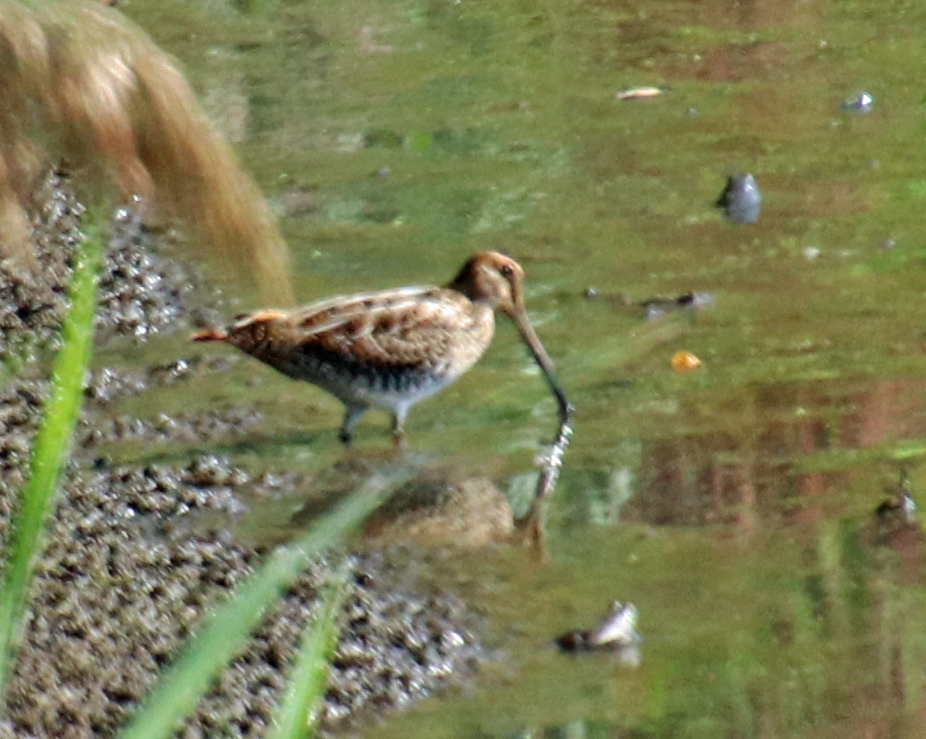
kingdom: Animalia
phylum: Chordata
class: Aves
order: Charadriiformes
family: Scolopacidae
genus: Gallinago
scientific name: Gallinago delicata
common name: Wilson's snipe
